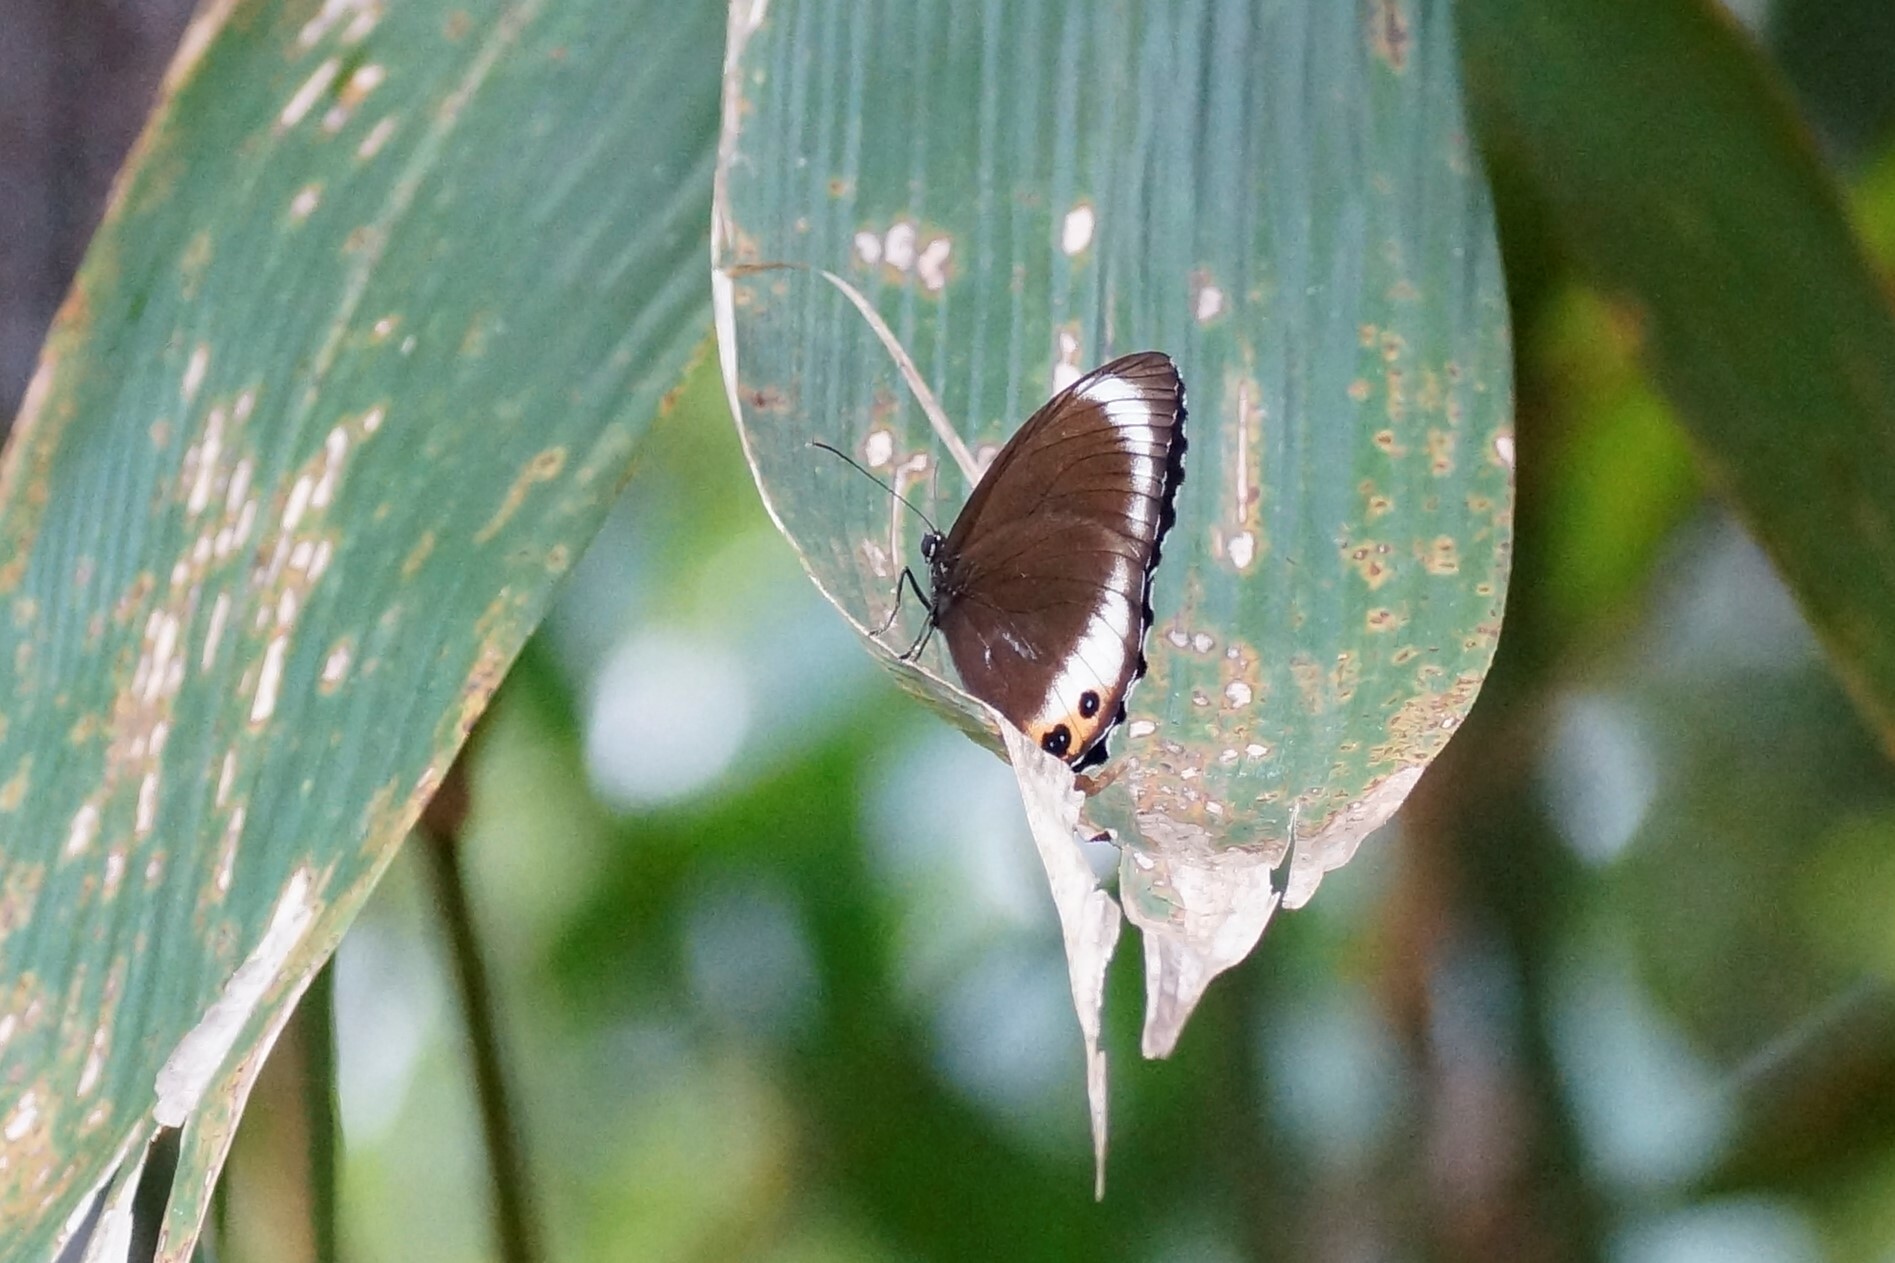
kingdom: Animalia
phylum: Arthropoda
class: Insecta
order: Lepidoptera
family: Nymphalidae
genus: Elymnias
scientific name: Elymnias agondas
